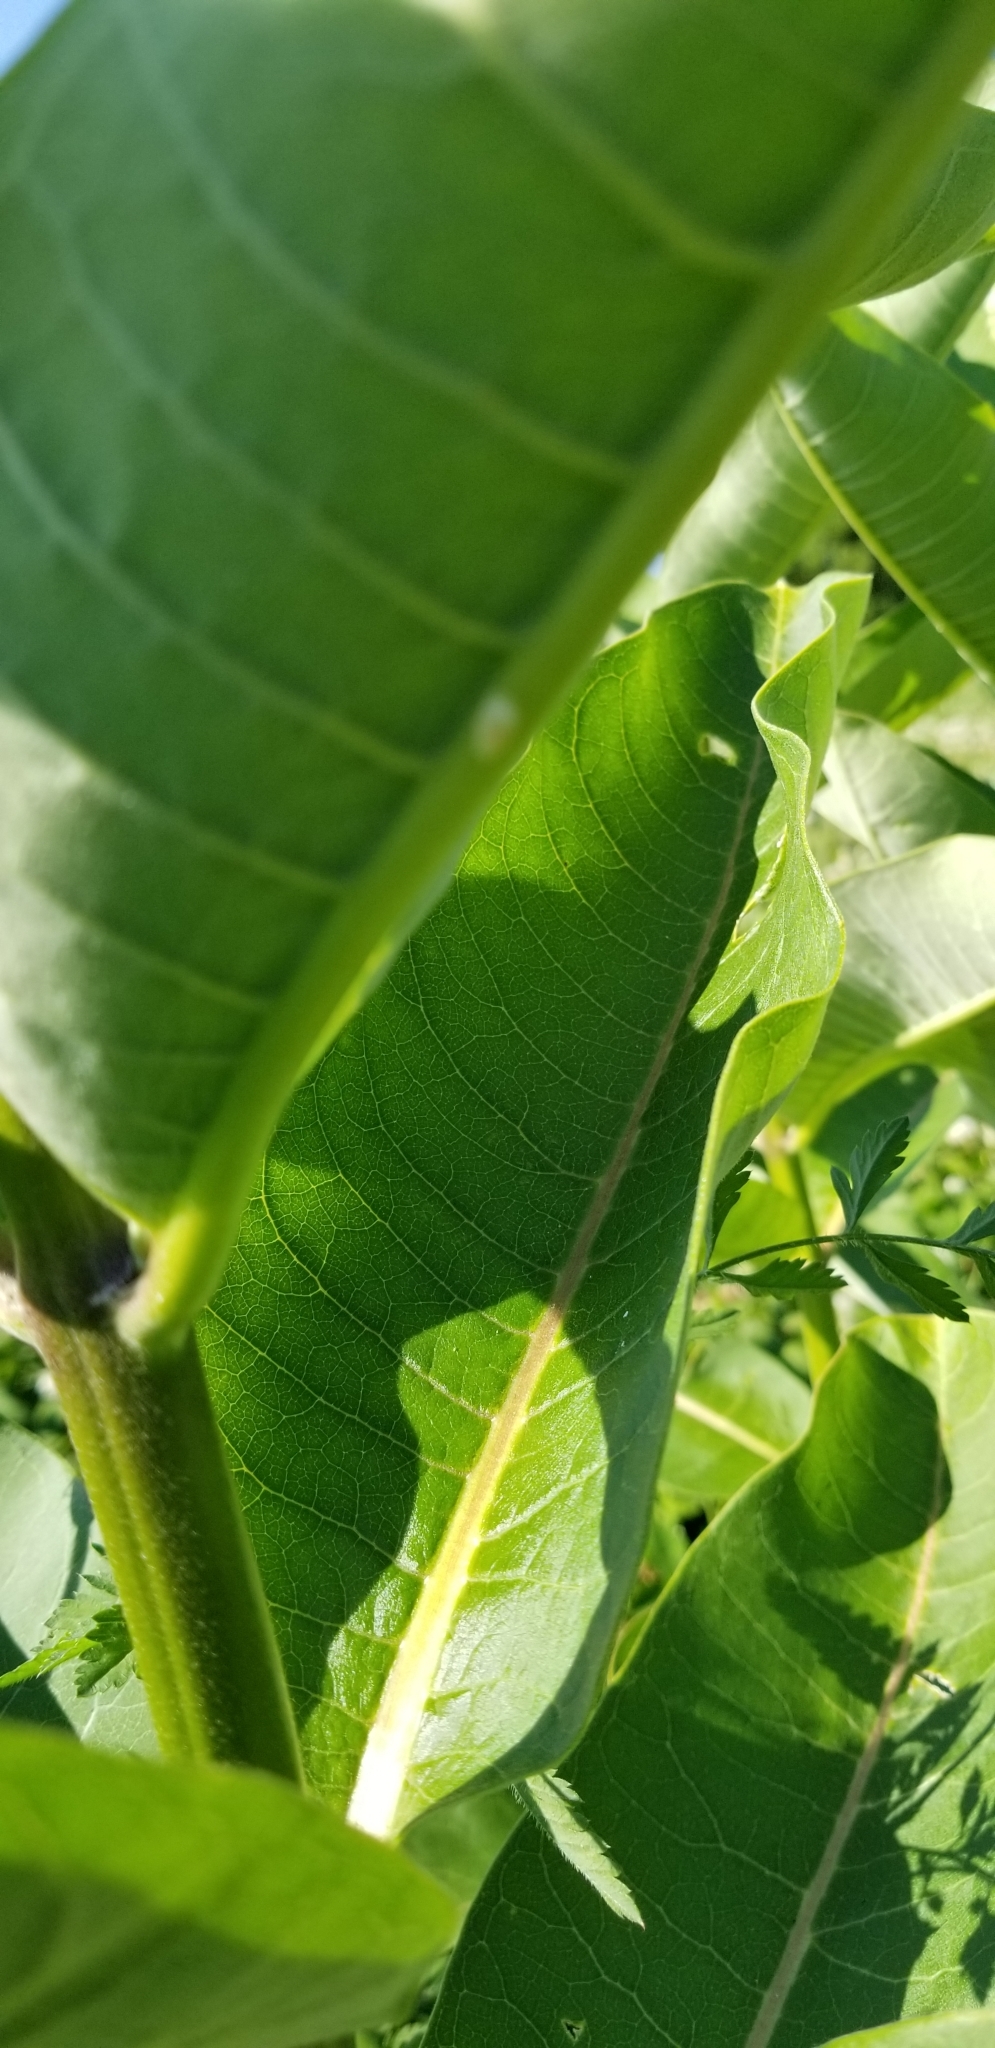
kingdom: Plantae
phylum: Tracheophyta
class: Magnoliopsida
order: Gentianales
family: Apocynaceae
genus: Asclepias
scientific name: Asclepias syriaca
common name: Common milkweed
